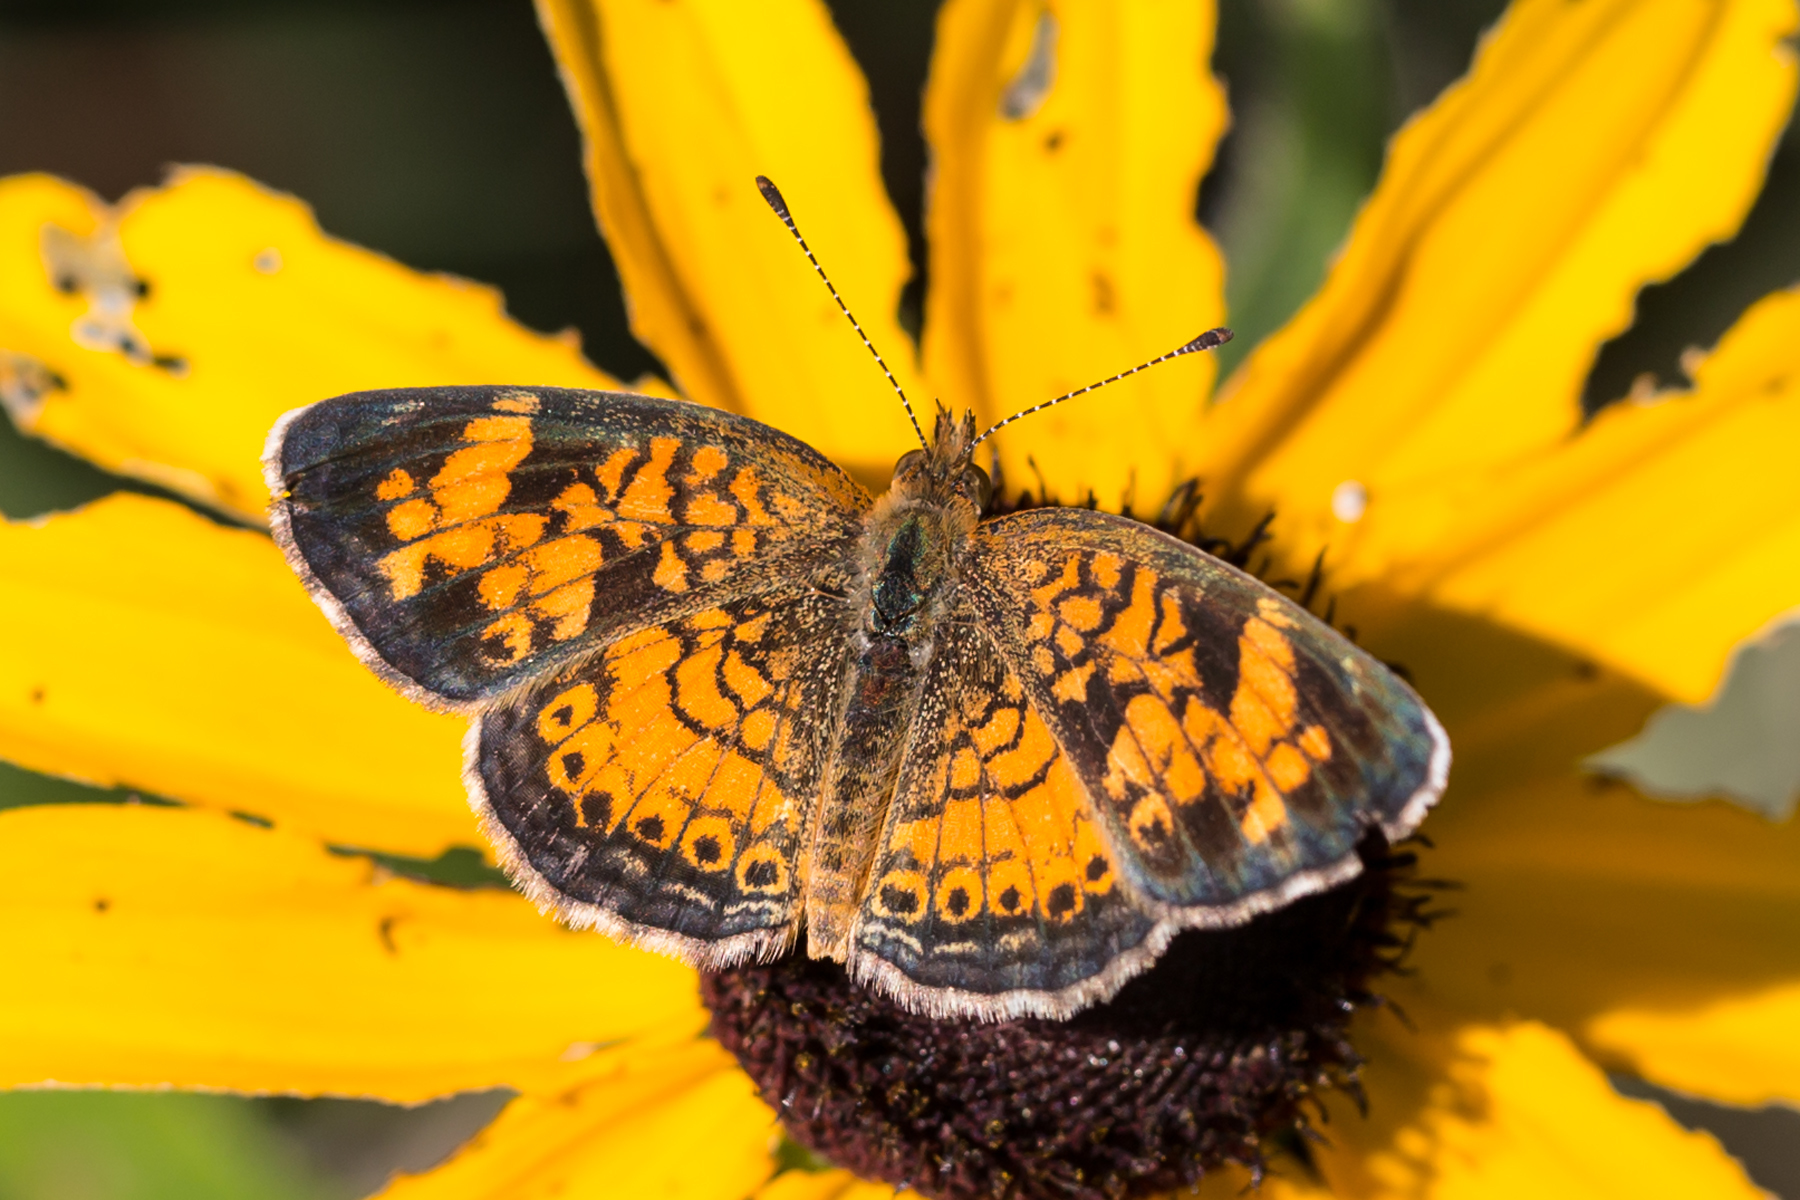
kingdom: Animalia
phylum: Arthropoda
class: Insecta
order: Lepidoptera
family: Nymphalidae
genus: Phyciodes
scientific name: Phyciodes tharos
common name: Pearl crescent
